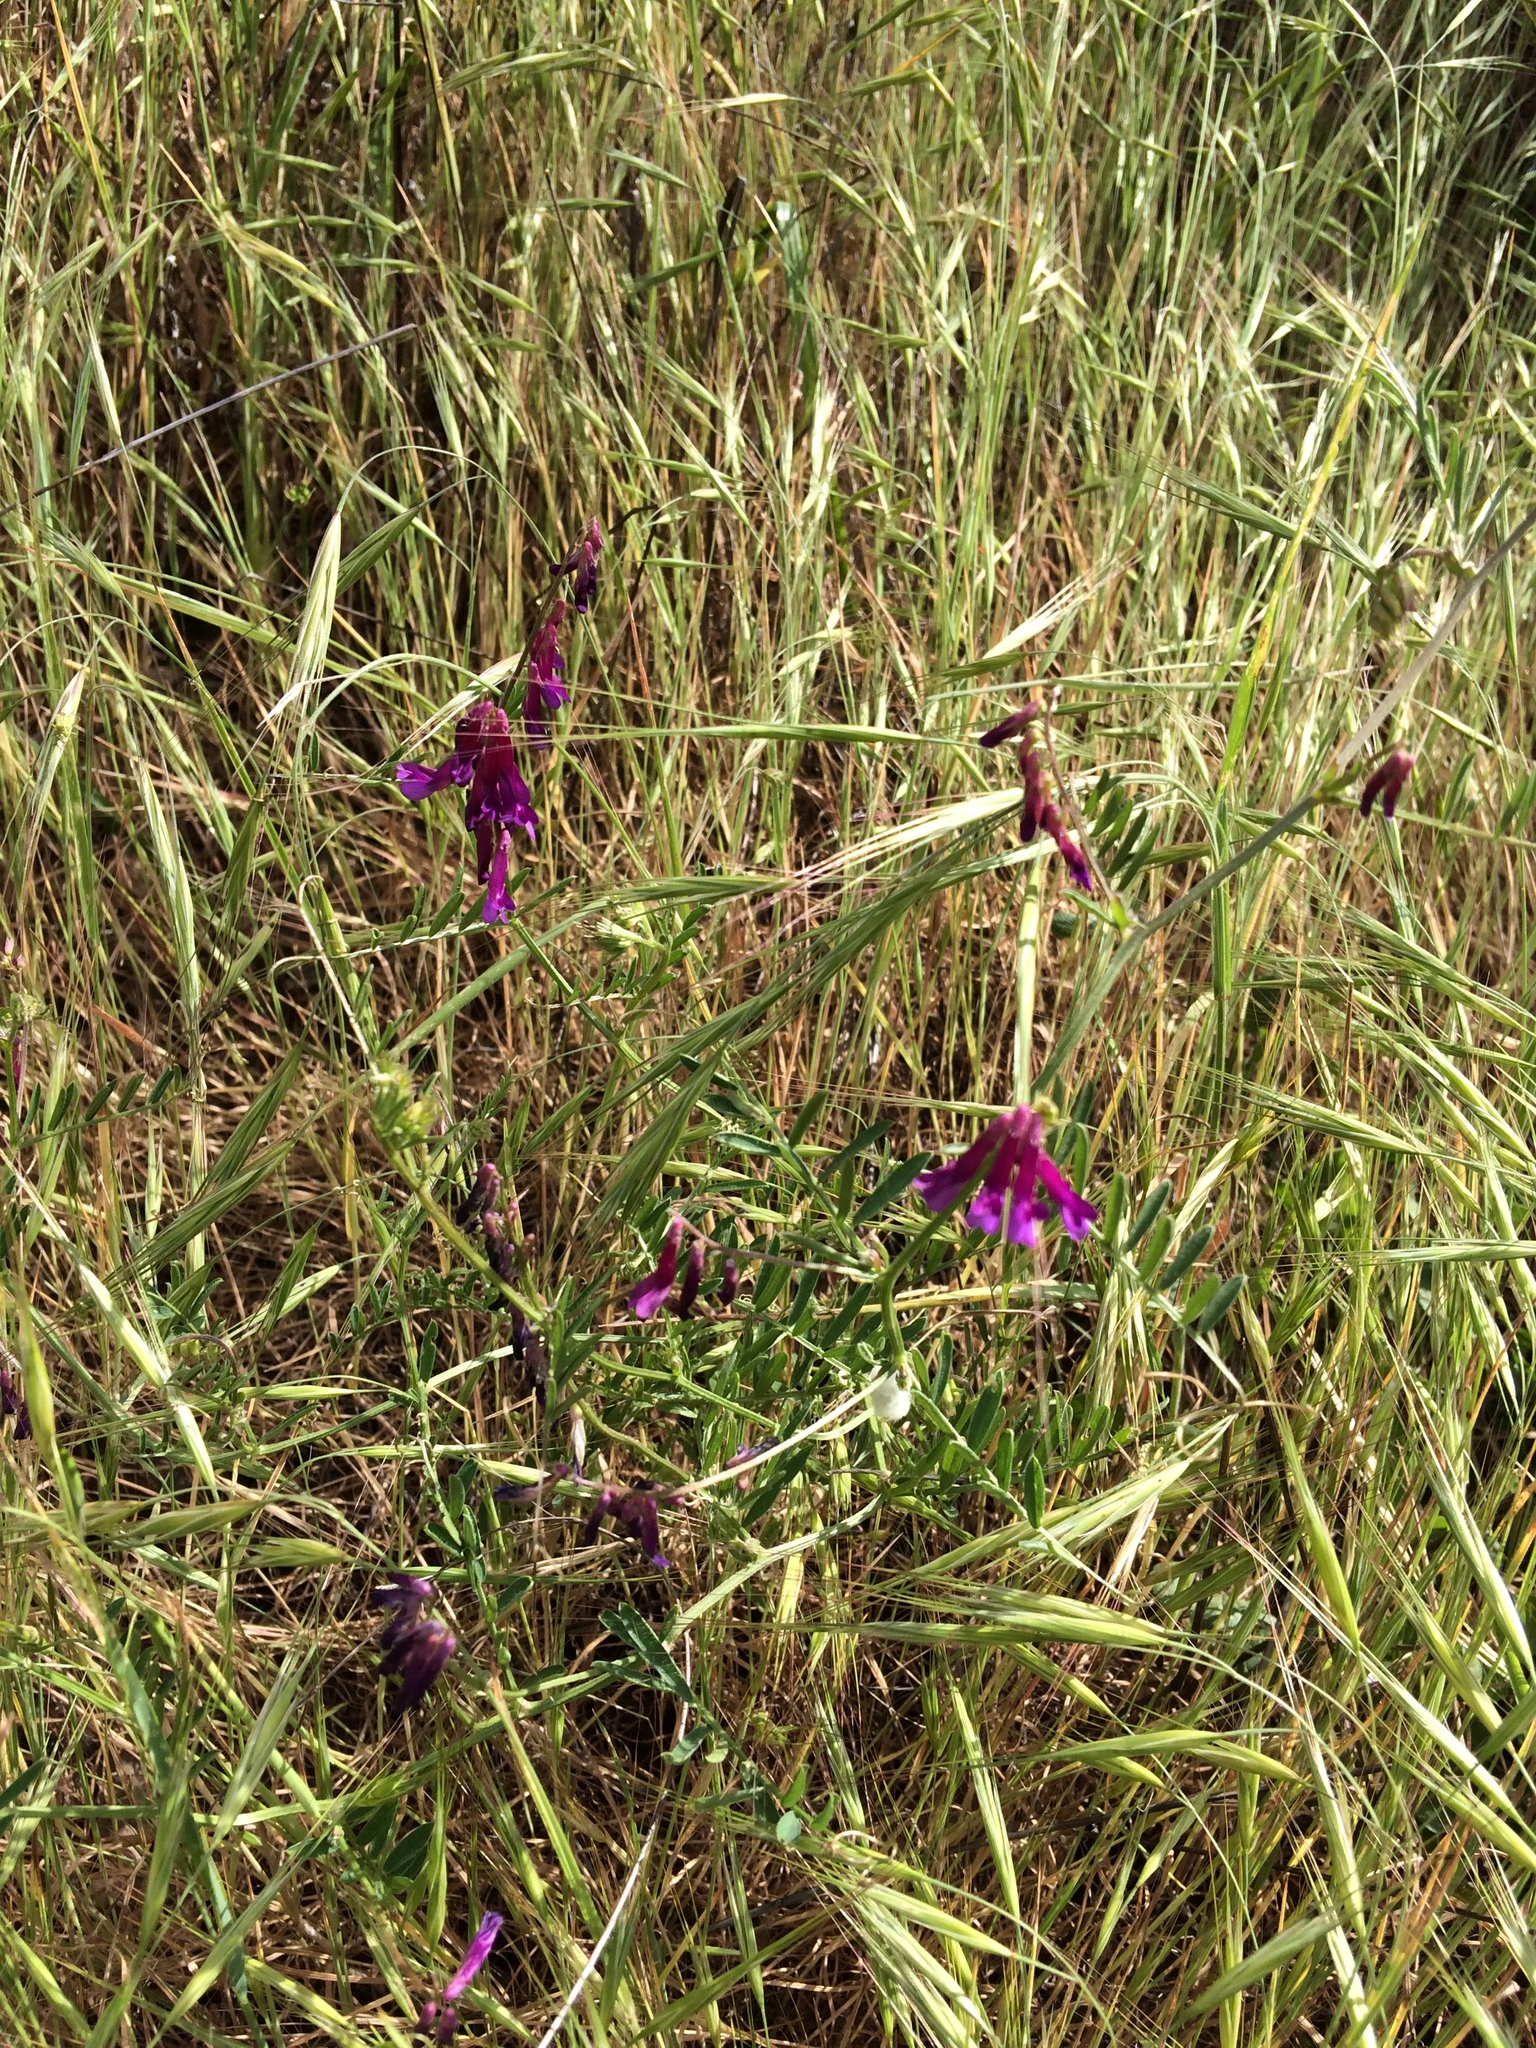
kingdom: Plantae
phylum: Tracheophyta
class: Magnoliopsida
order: Fabales
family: Fabaceae
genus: Vicia
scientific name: Vicia villosa
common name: Fodder vetch
